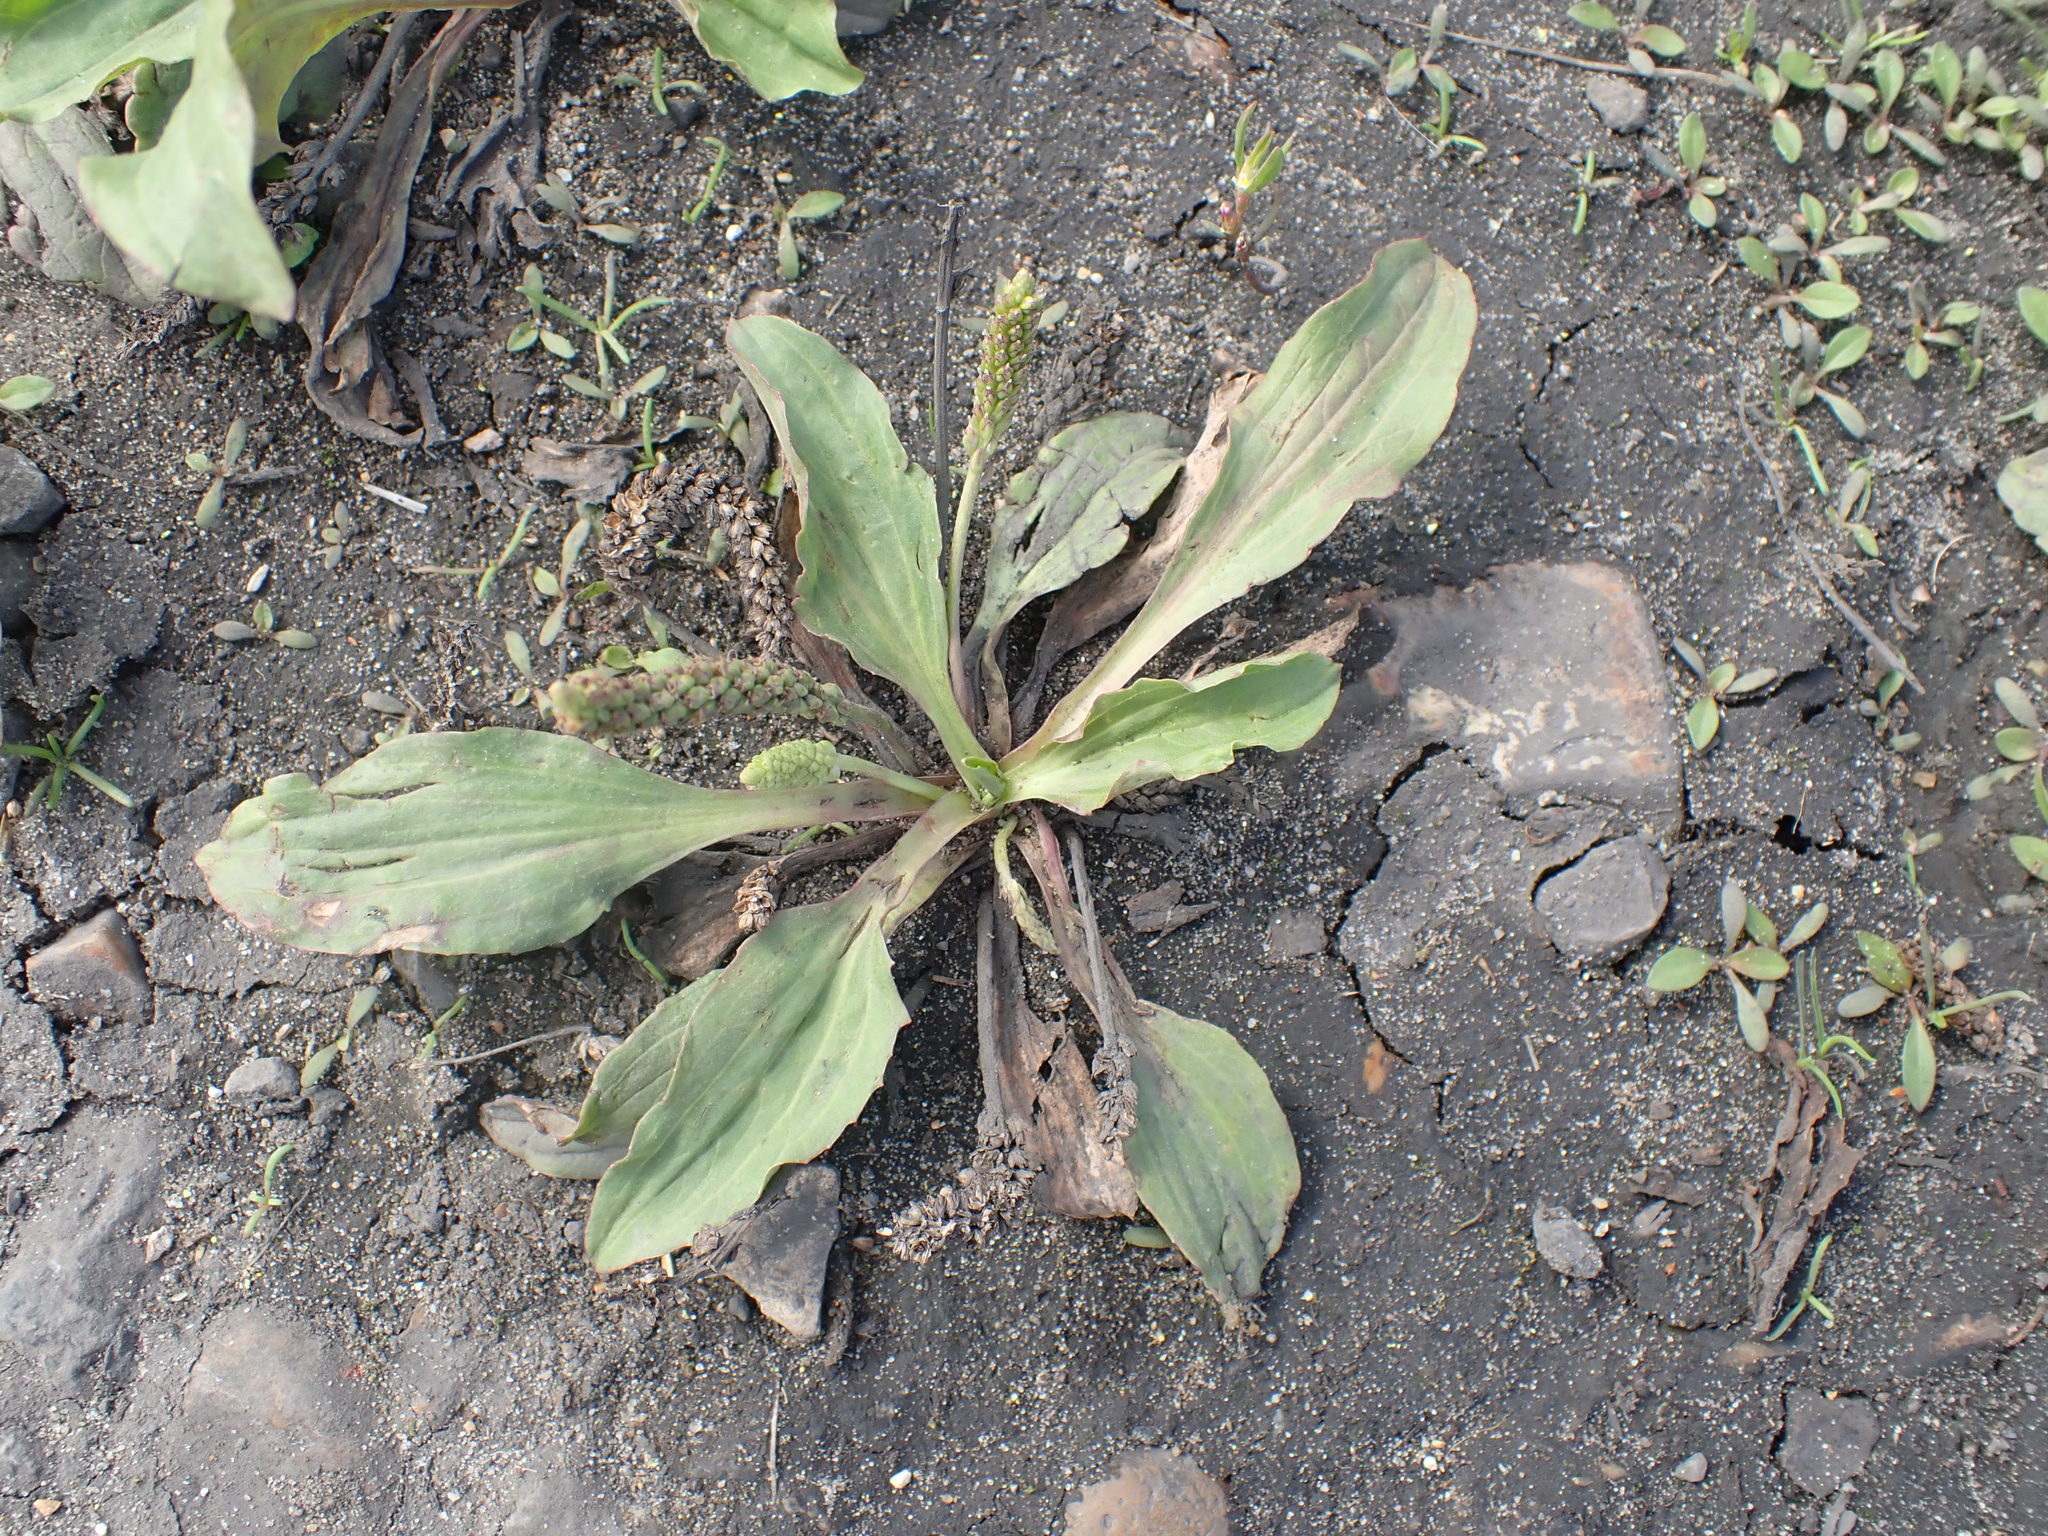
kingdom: Plantae
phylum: Tracheophyta
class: Magnoliopsida
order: Lamiales
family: Plantaginaceae
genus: Plantago
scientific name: Plantago major
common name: Common plantain
